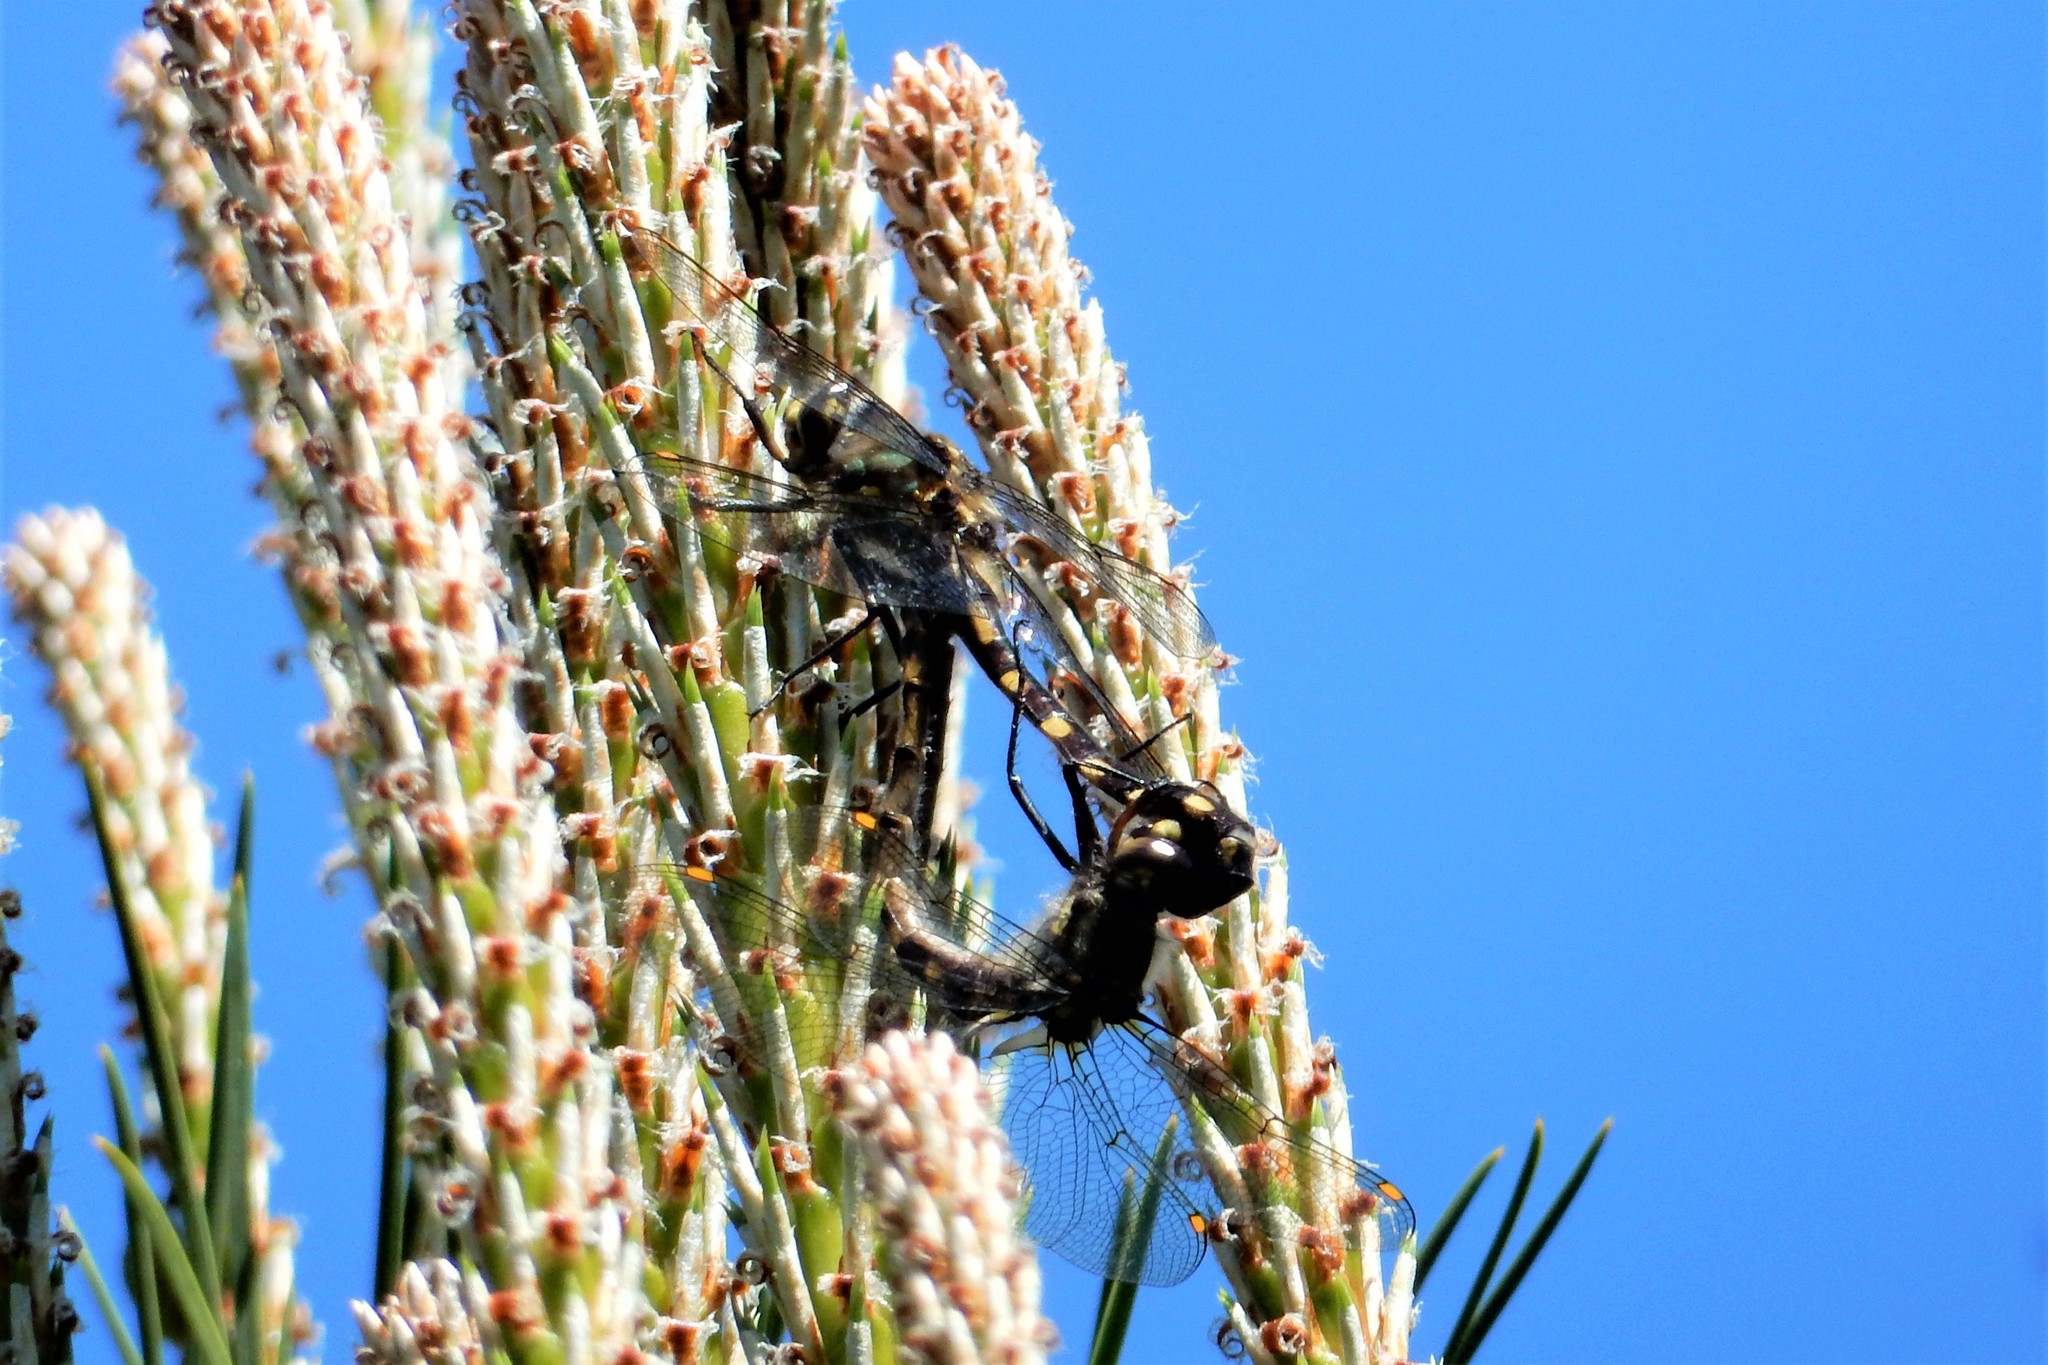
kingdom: Animalia
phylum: Arthropoda
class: Insecta
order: Odonata
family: Corduliidae
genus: Procordulia
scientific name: Procordulia grayi
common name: Yellow spotted dragonfly
